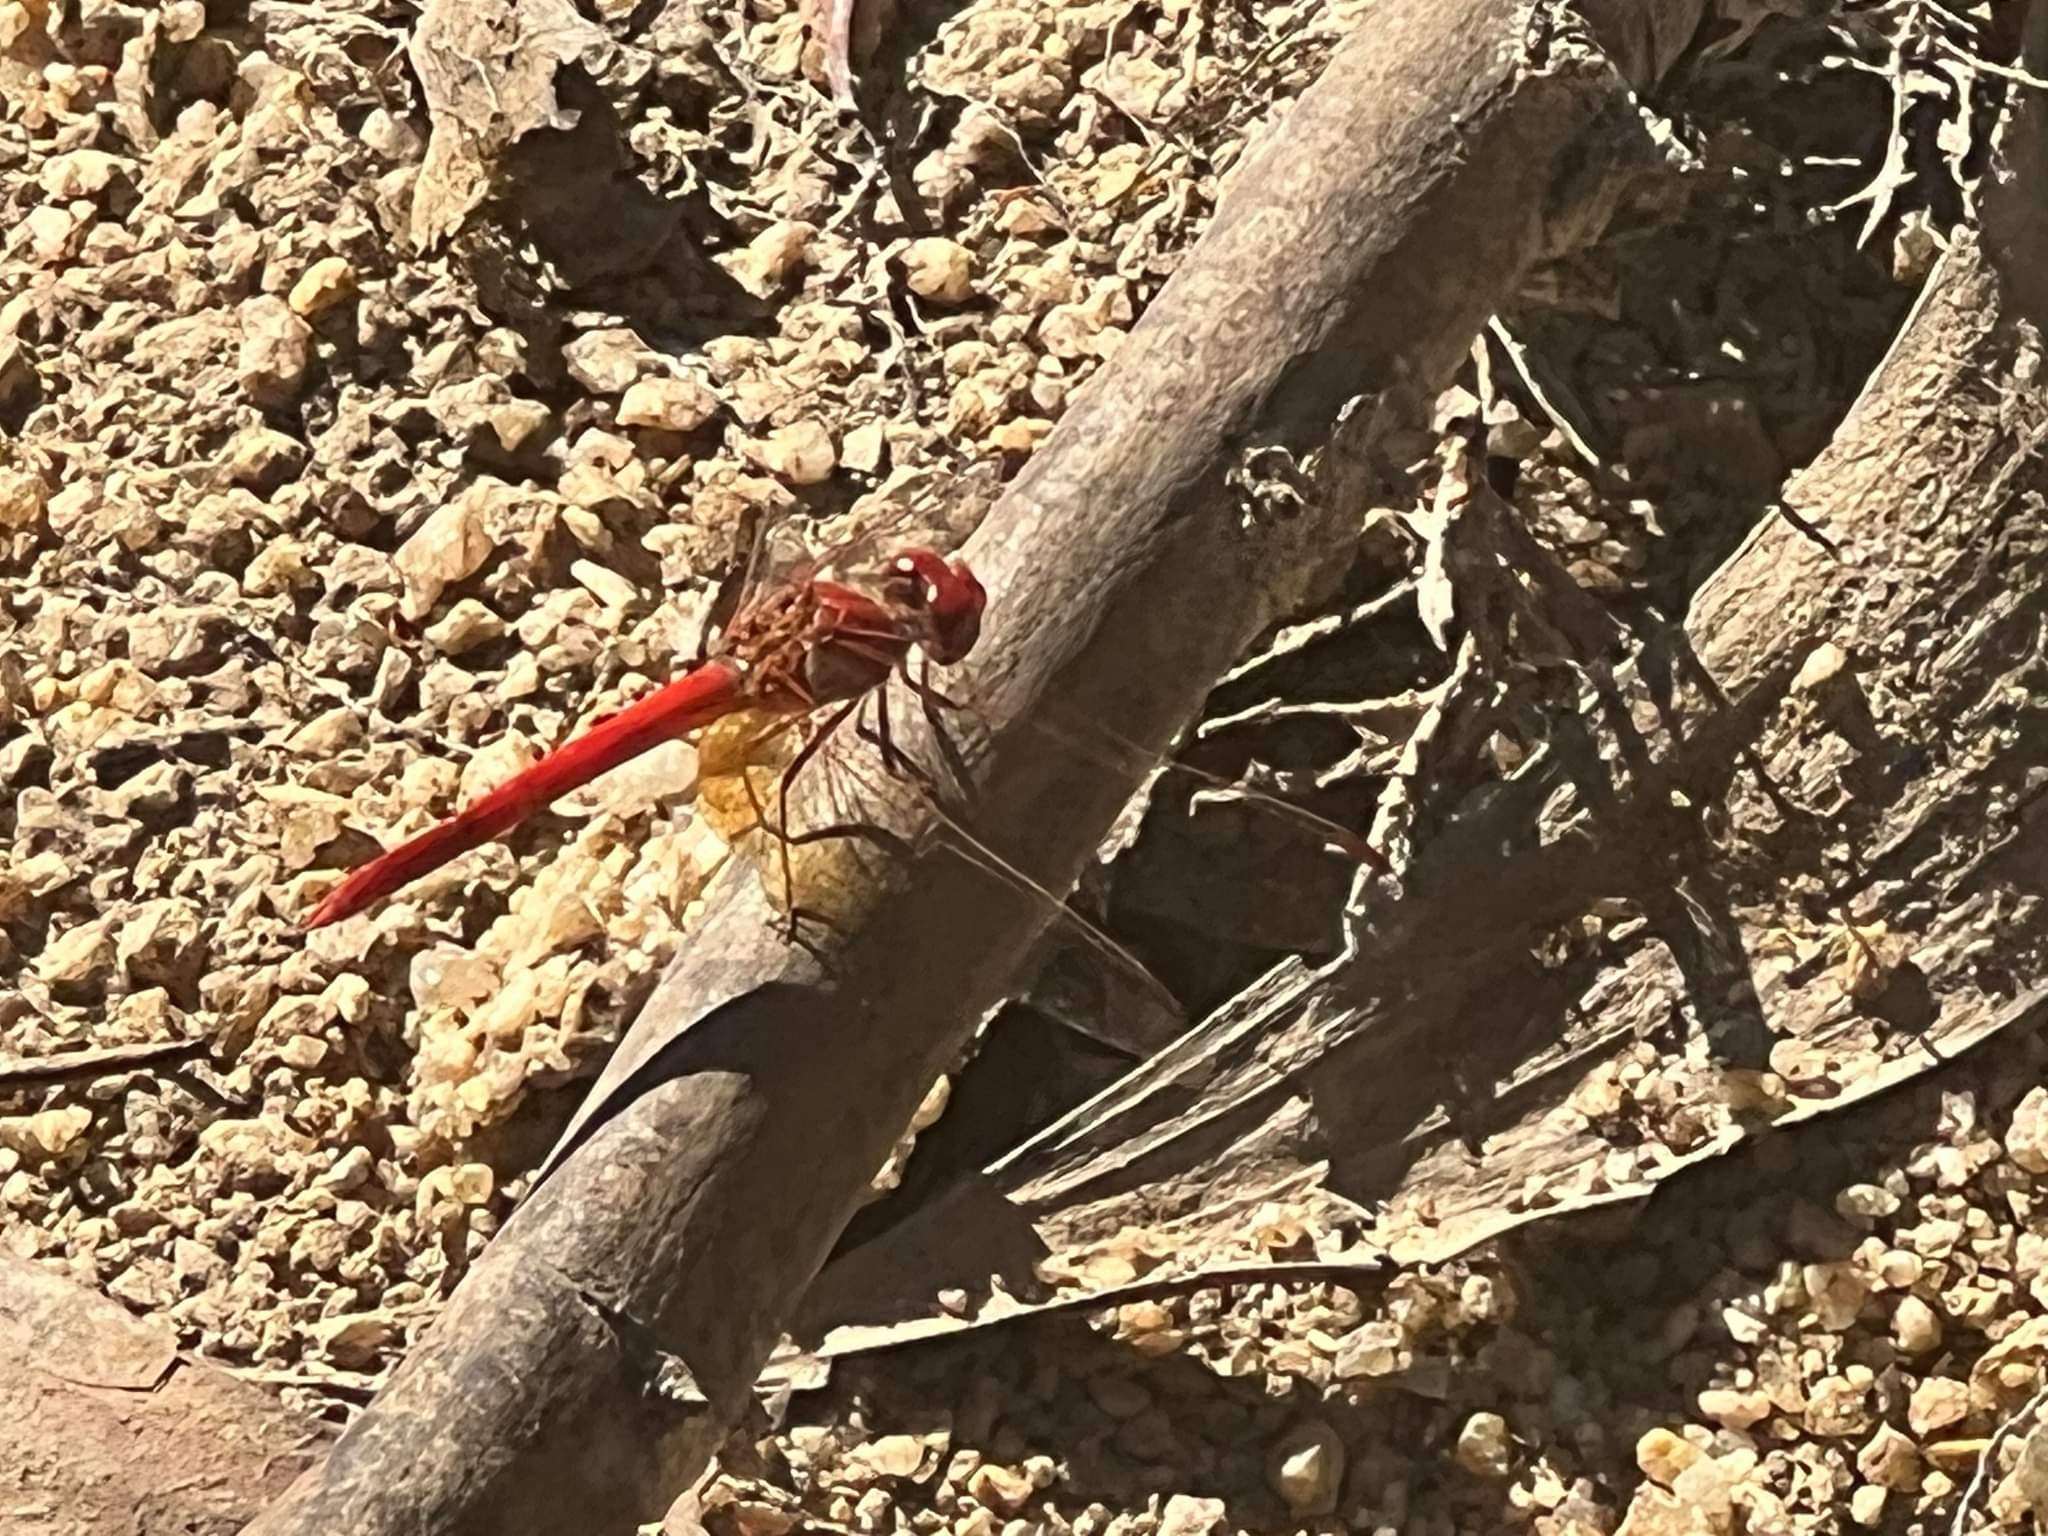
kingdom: Animalia
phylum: Arthropoda
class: Insecta
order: Odonata
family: Libellulidae
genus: Diplacodes
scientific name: Diplacodes haematodes
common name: Scarlet percher
